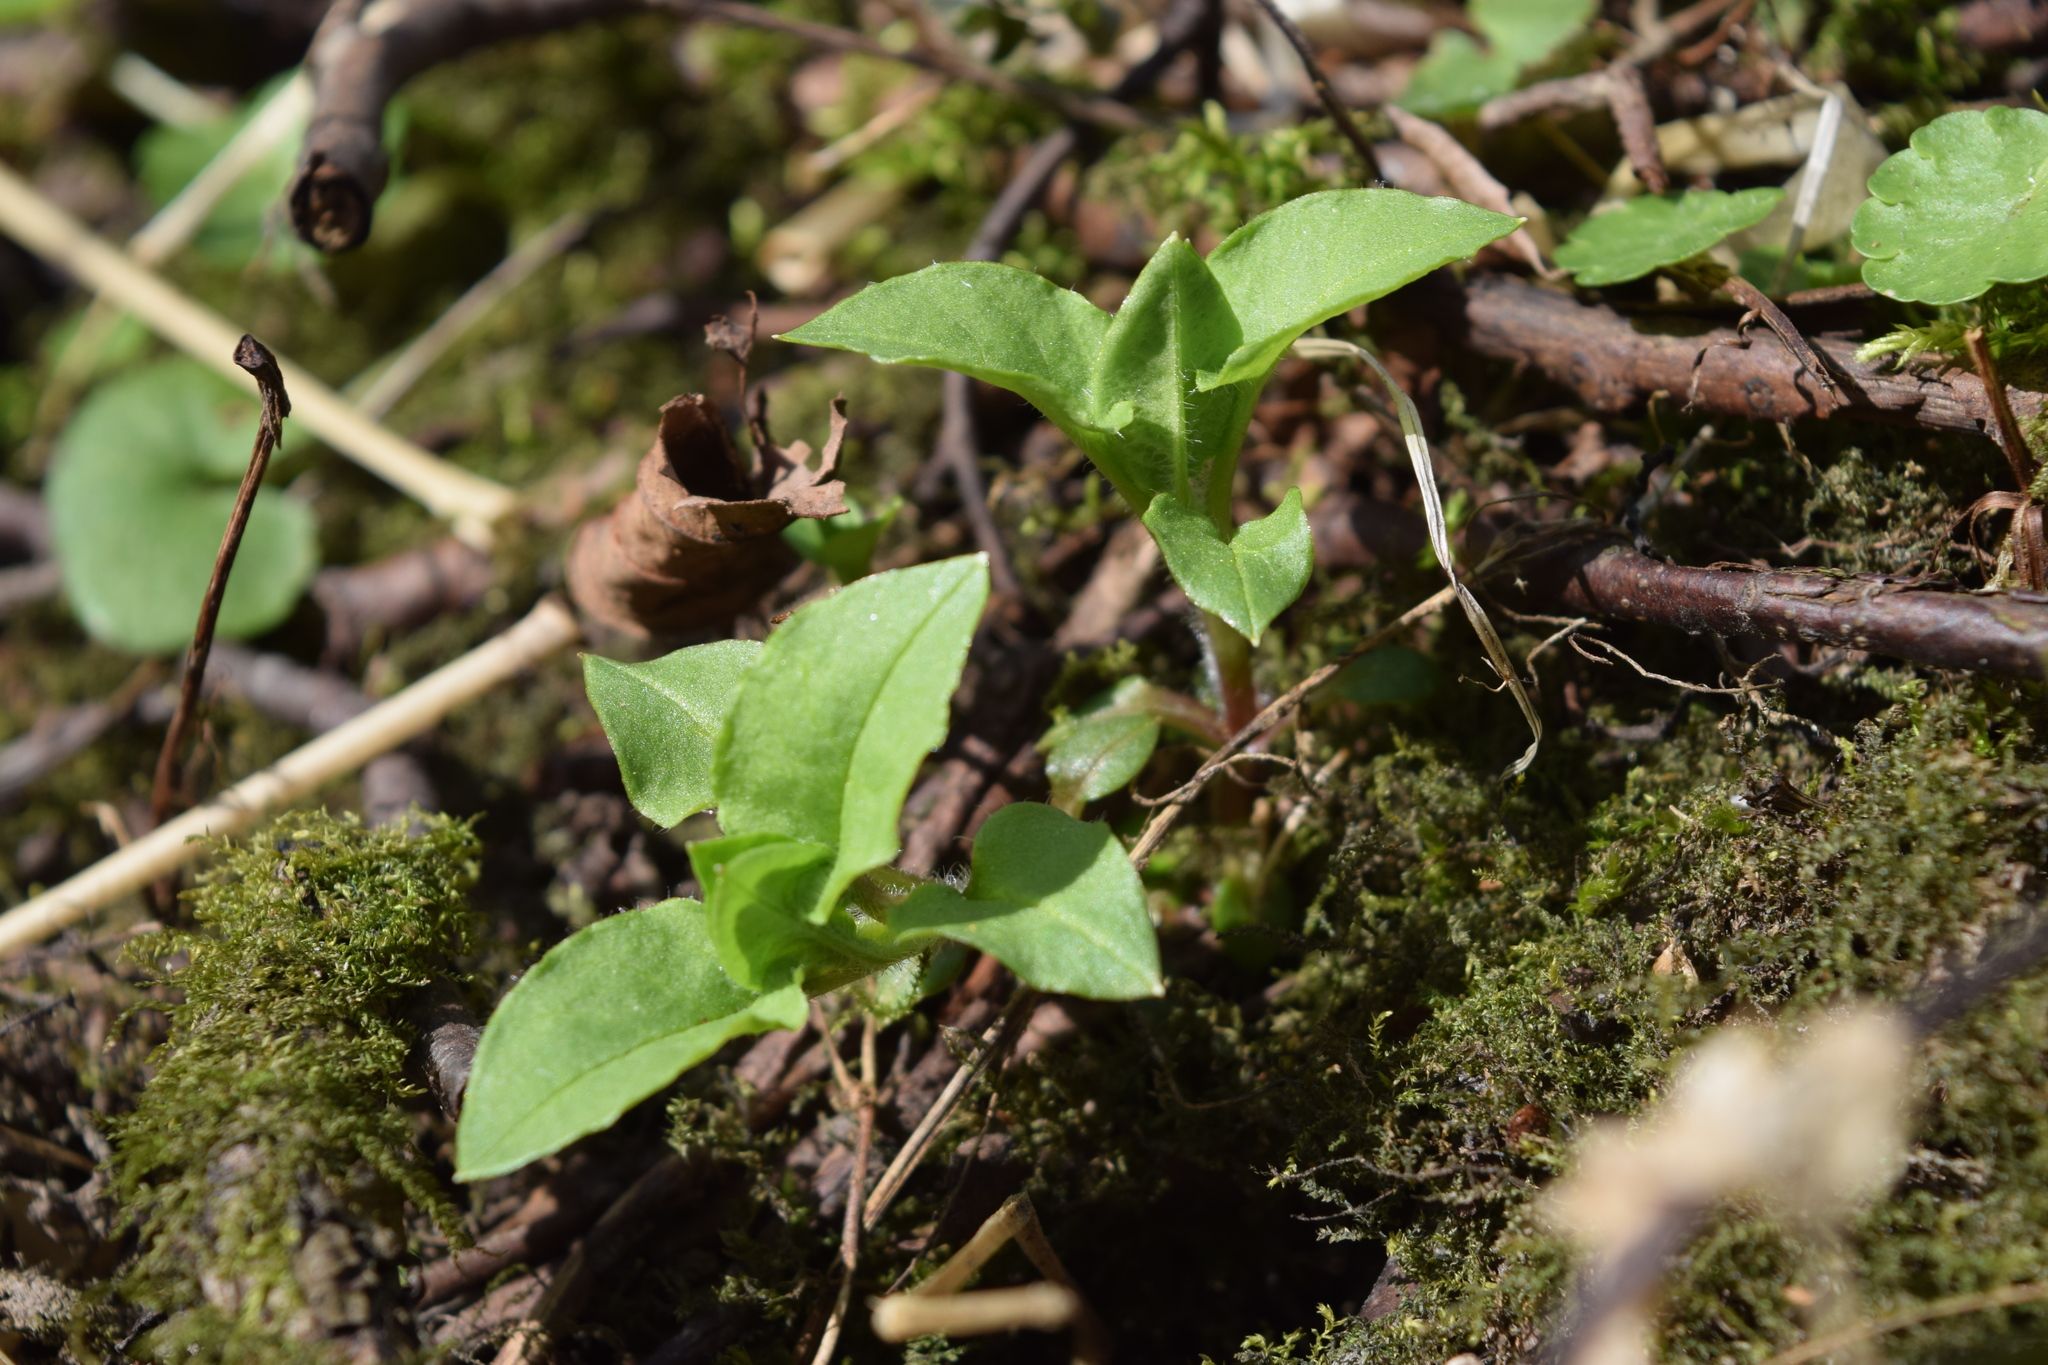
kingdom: Plantae
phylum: Tracheophyta
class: Magnoliopsida
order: Caryophyllales
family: Caryophyllaceae
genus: Stellaria
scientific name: Stellaria nemorum
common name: Wood stitchwort
